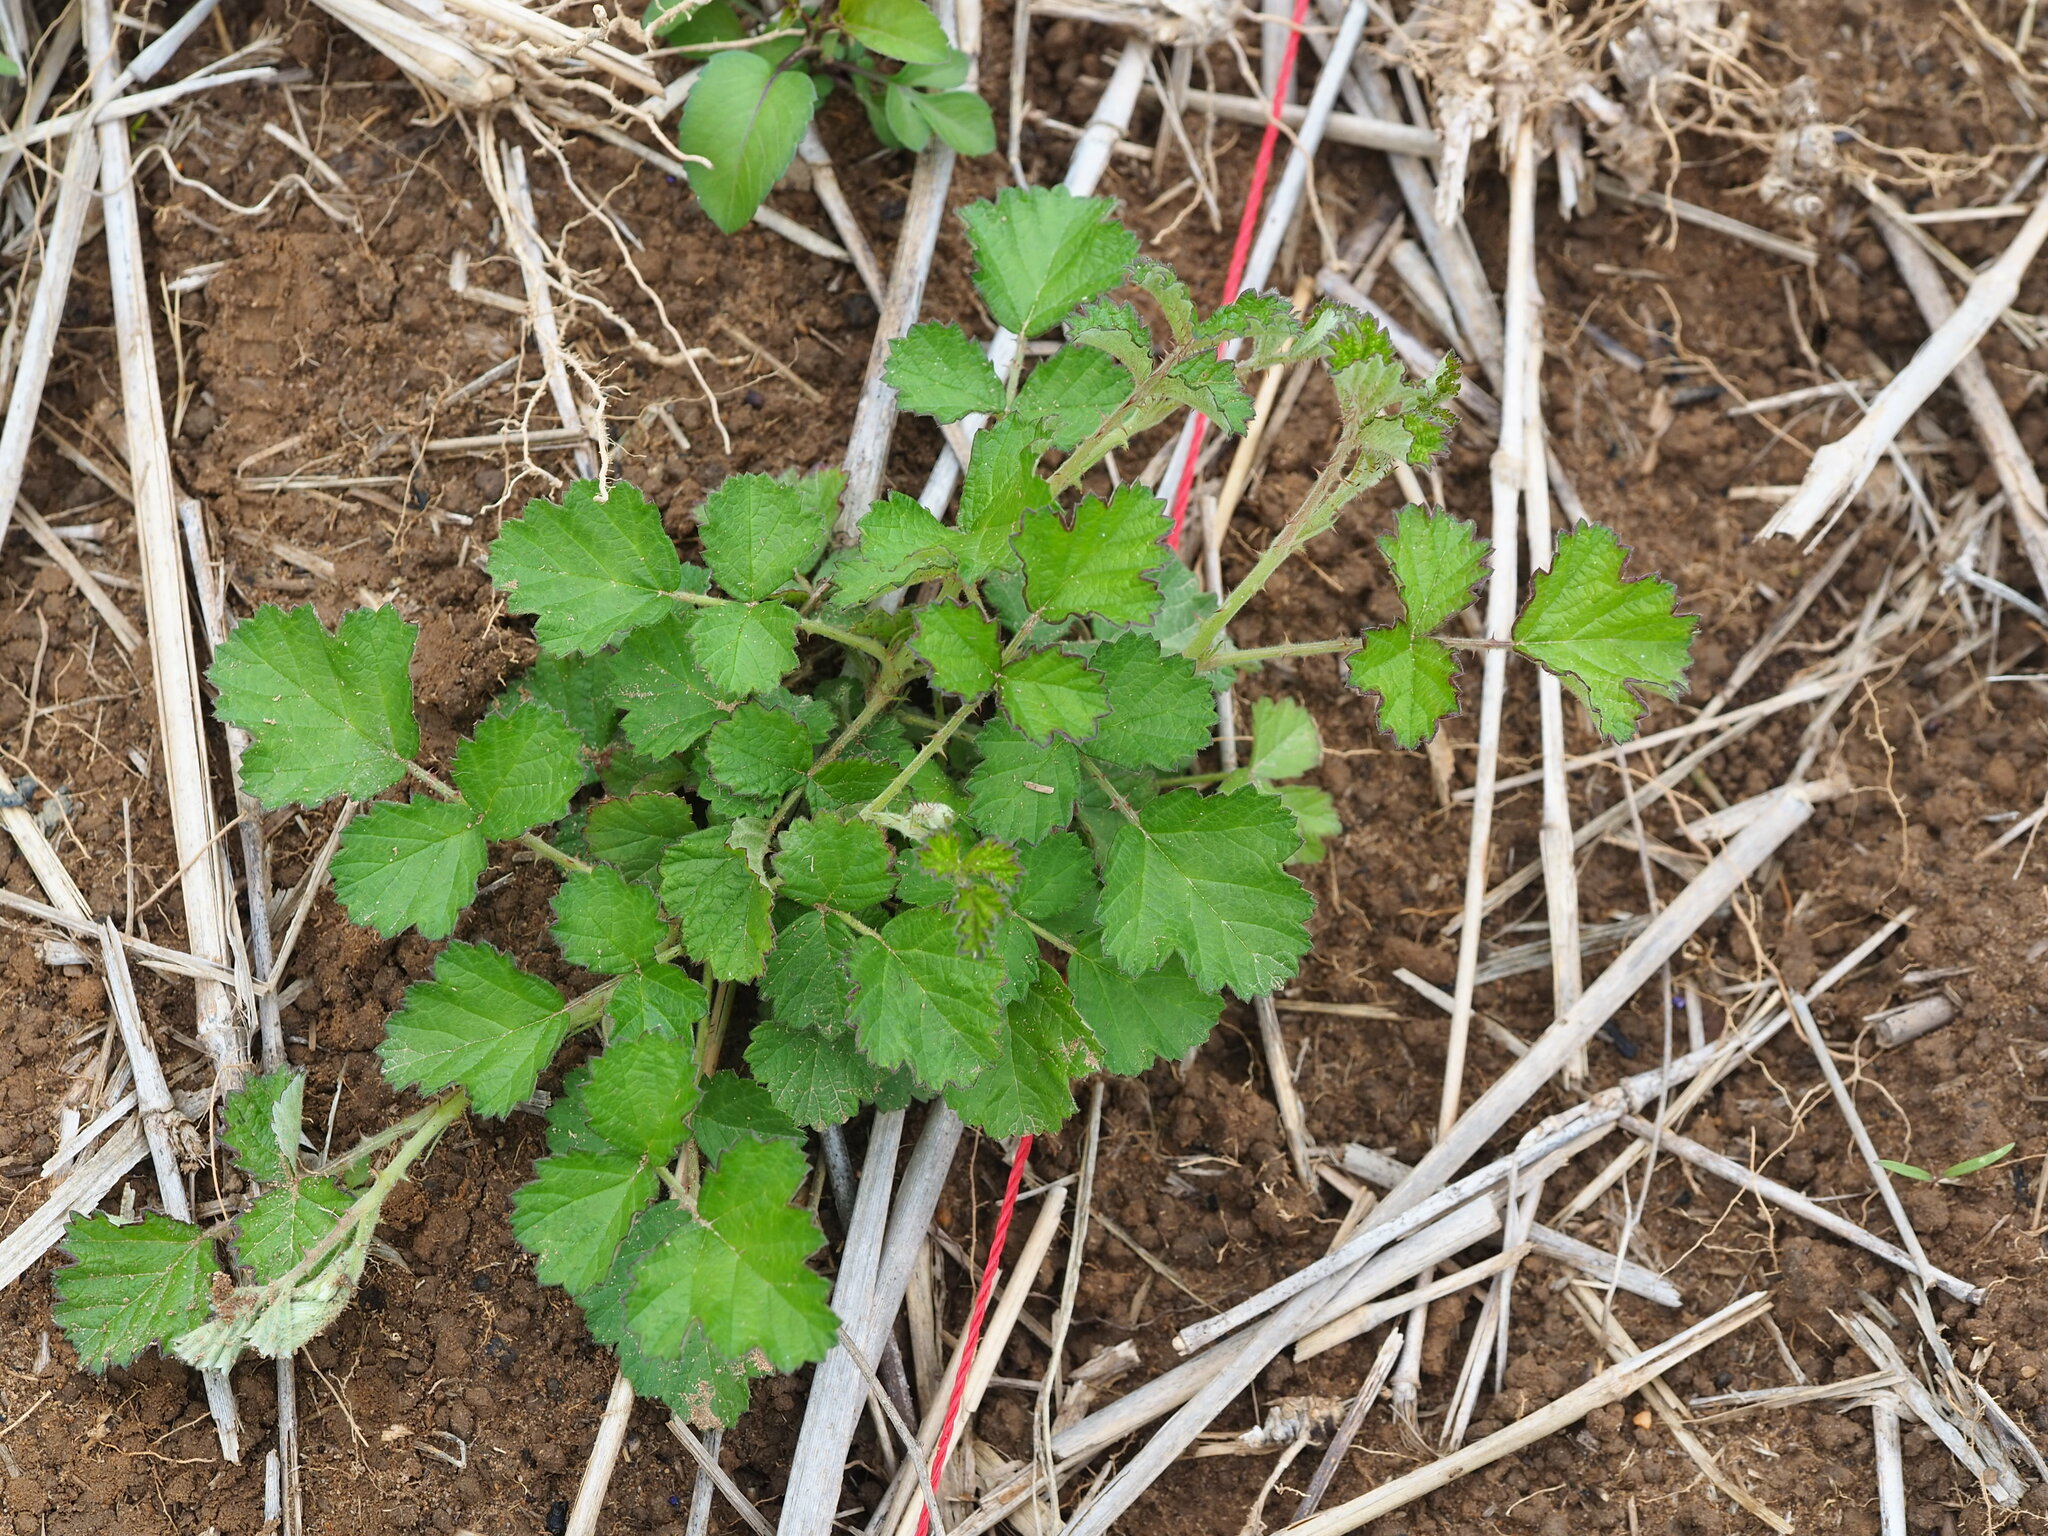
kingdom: Plantae
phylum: Tracheophyta
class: Magnoliopsida
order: Rosales
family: Rosaceae
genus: Rubus
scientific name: Rubus parvifolius
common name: Threeleaf blackberry
